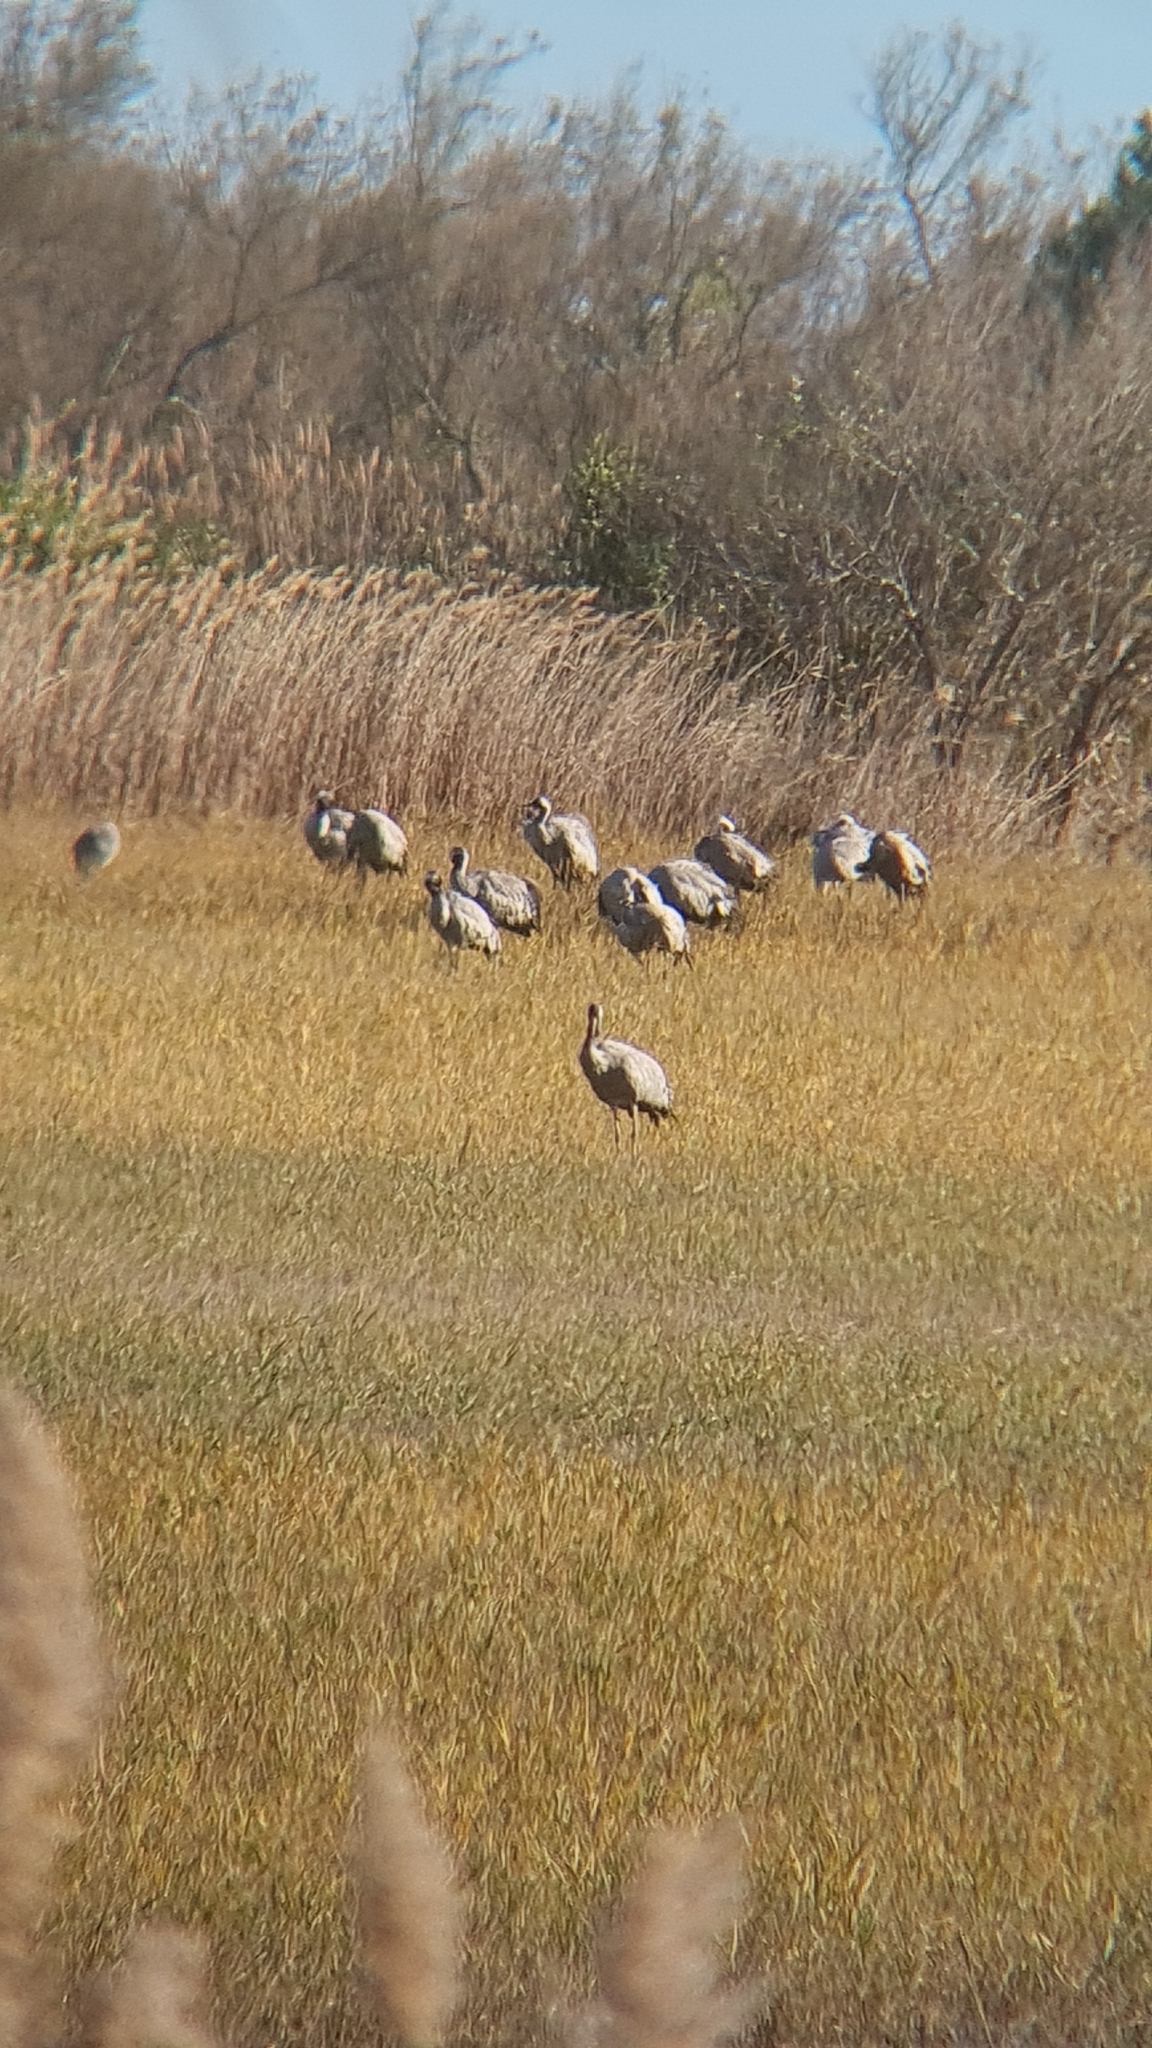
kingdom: Animalia
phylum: Chordata
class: Aves
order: Gruiformes
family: Gruidae
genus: Grus
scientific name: Grus grus
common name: Common crane
